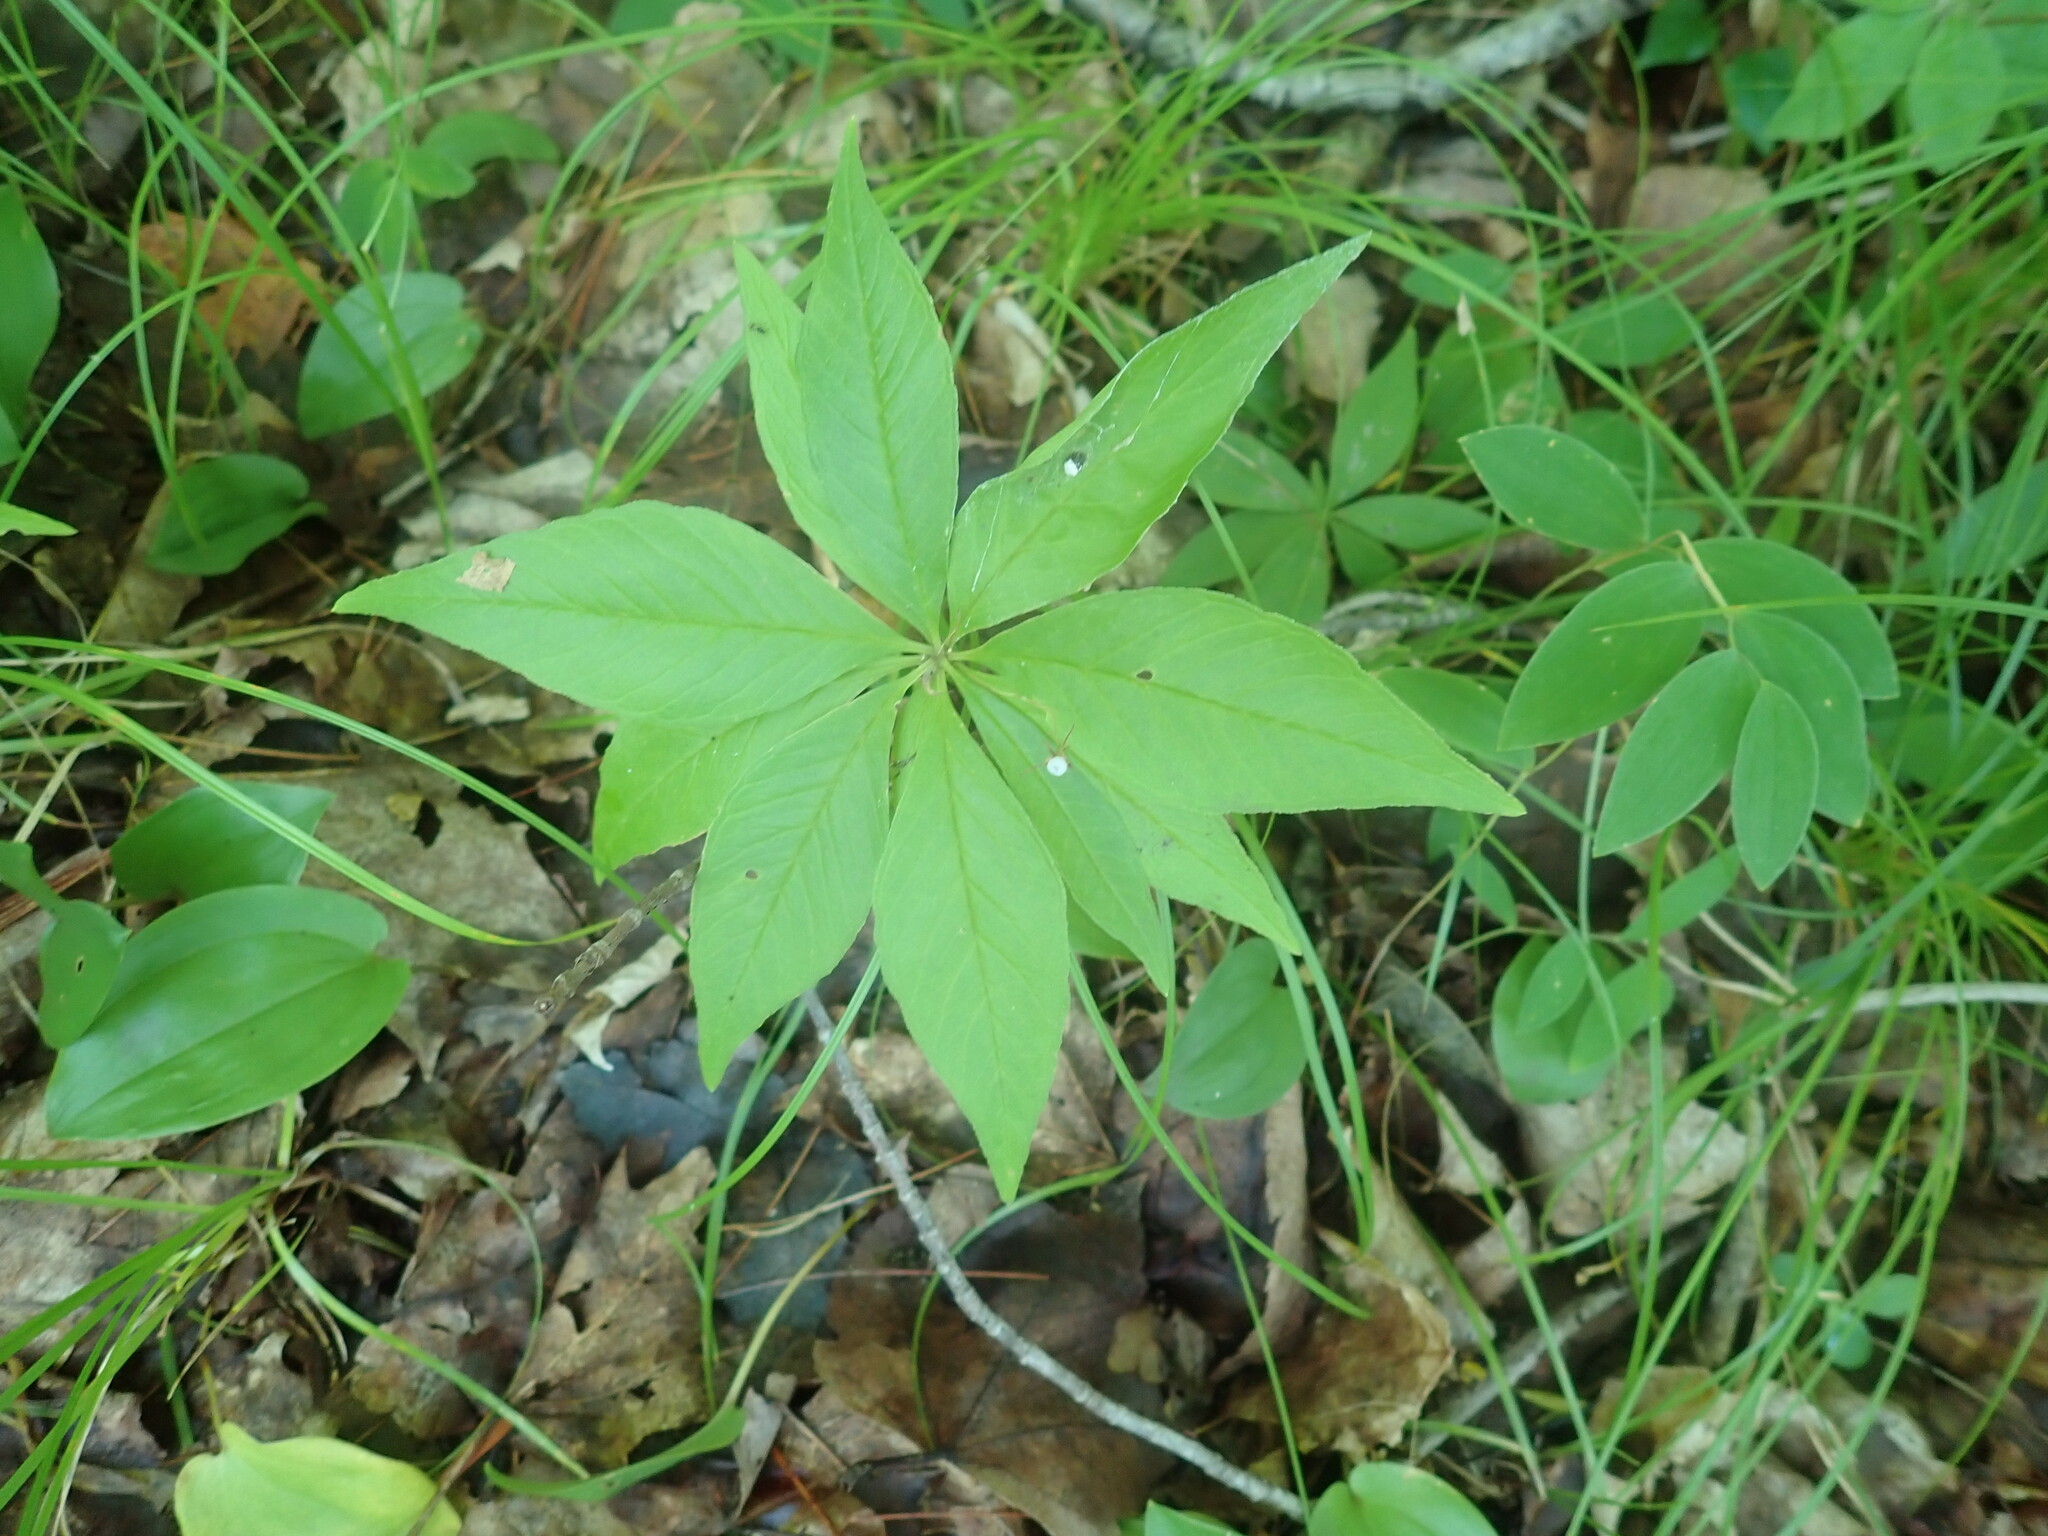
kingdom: Plantae
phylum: Tracheophyta
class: Magnoliopsida
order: Ericales
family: Primulaceae
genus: Lysimachia
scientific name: Lysimachia borealis
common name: American starflower
